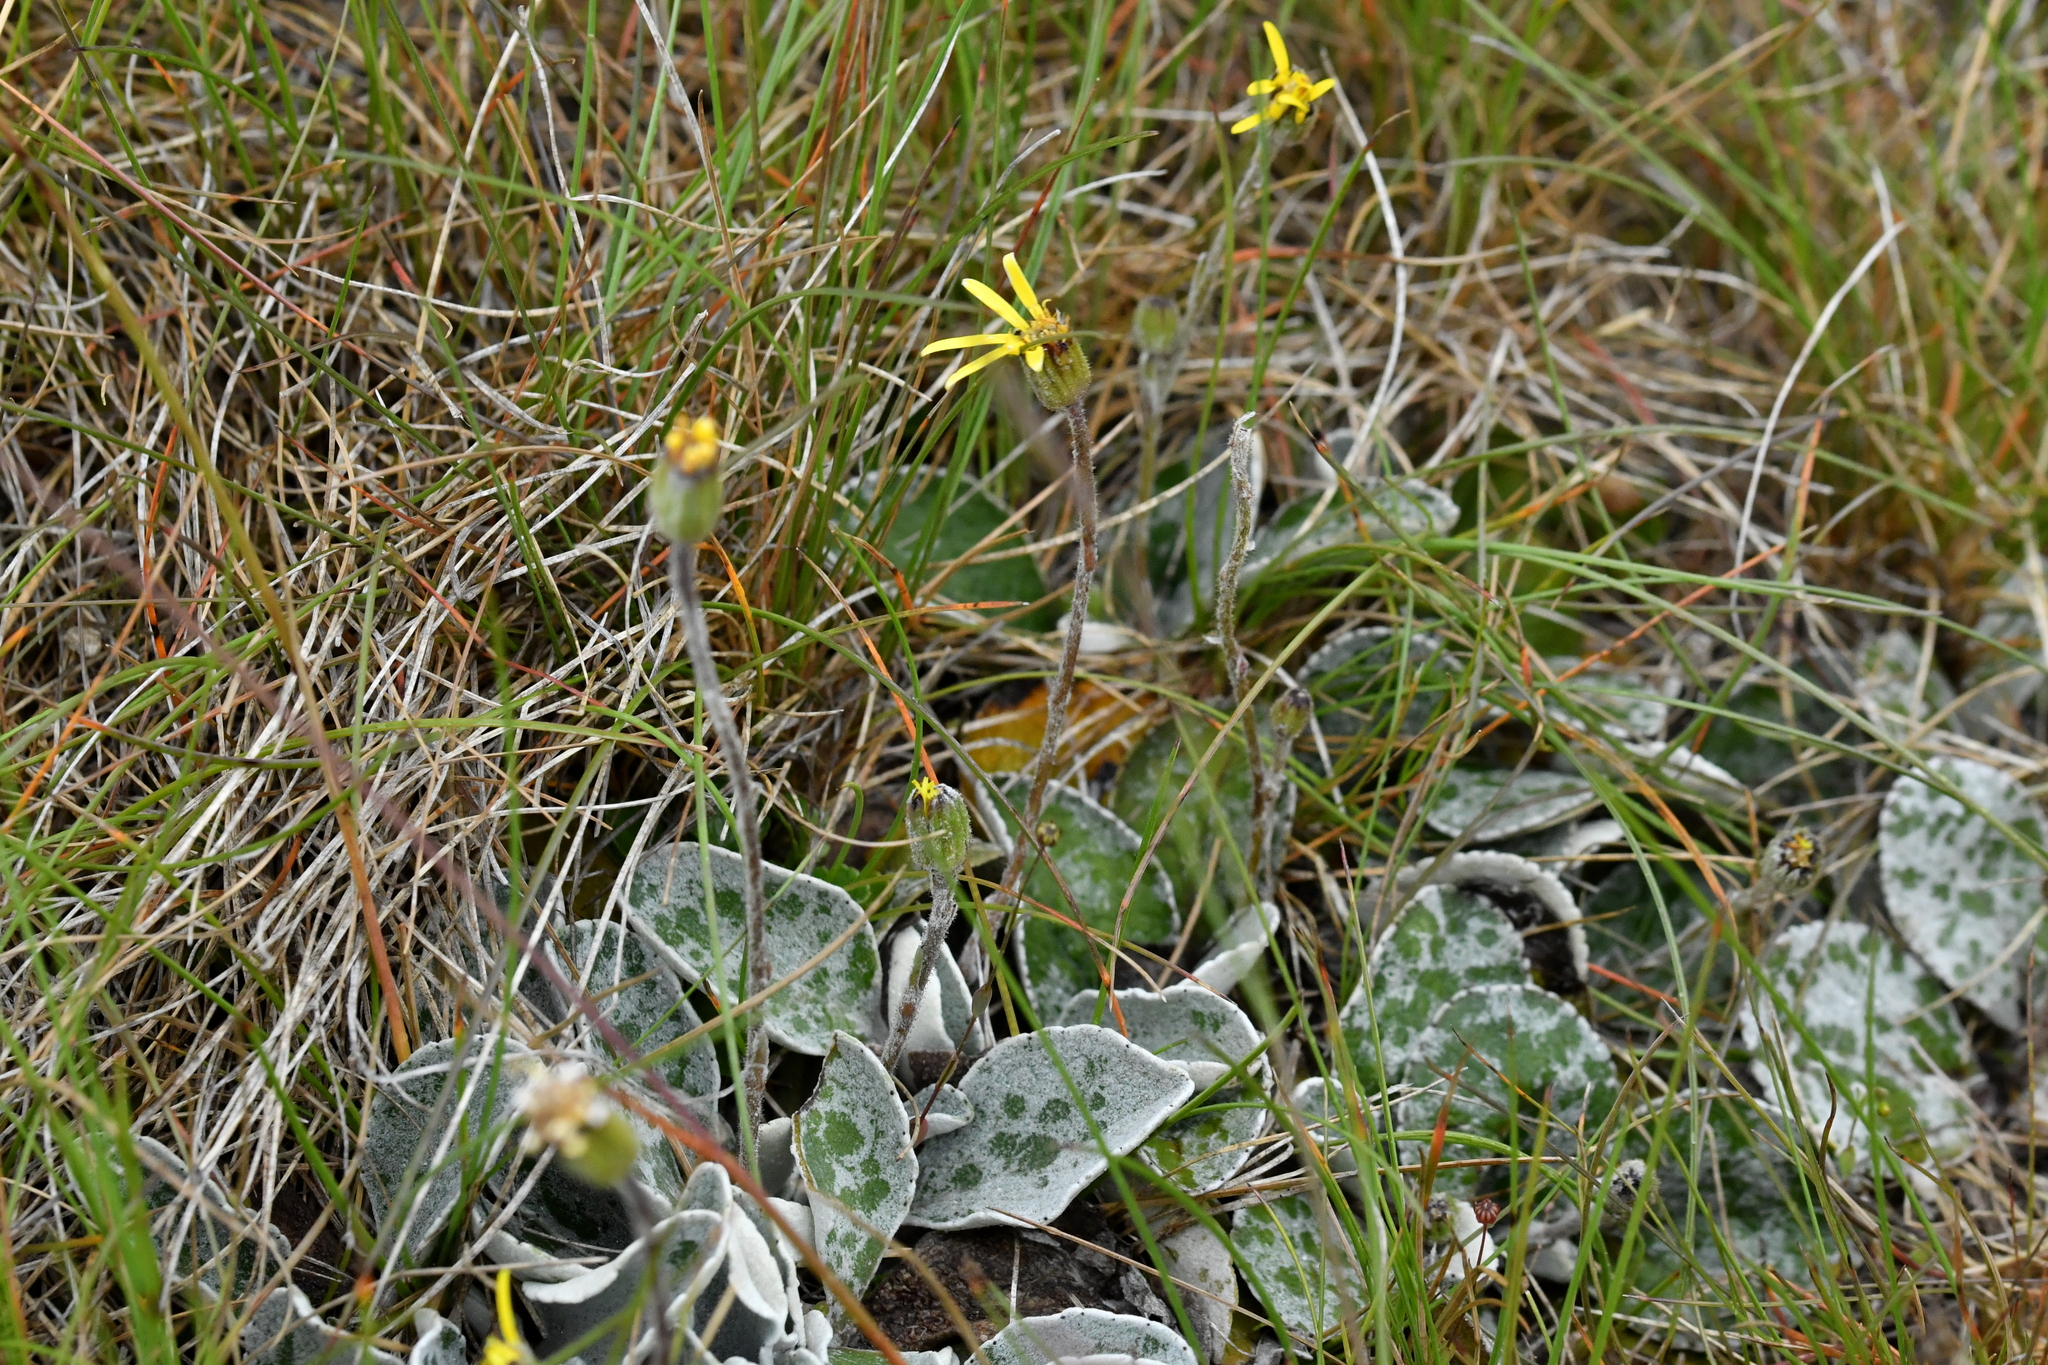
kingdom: Plantae
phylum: Tracheophyta
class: Magnoliopsida
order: Asterales
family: Asteraceae
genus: Brachyglottis
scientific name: Brachyglottis haastii
